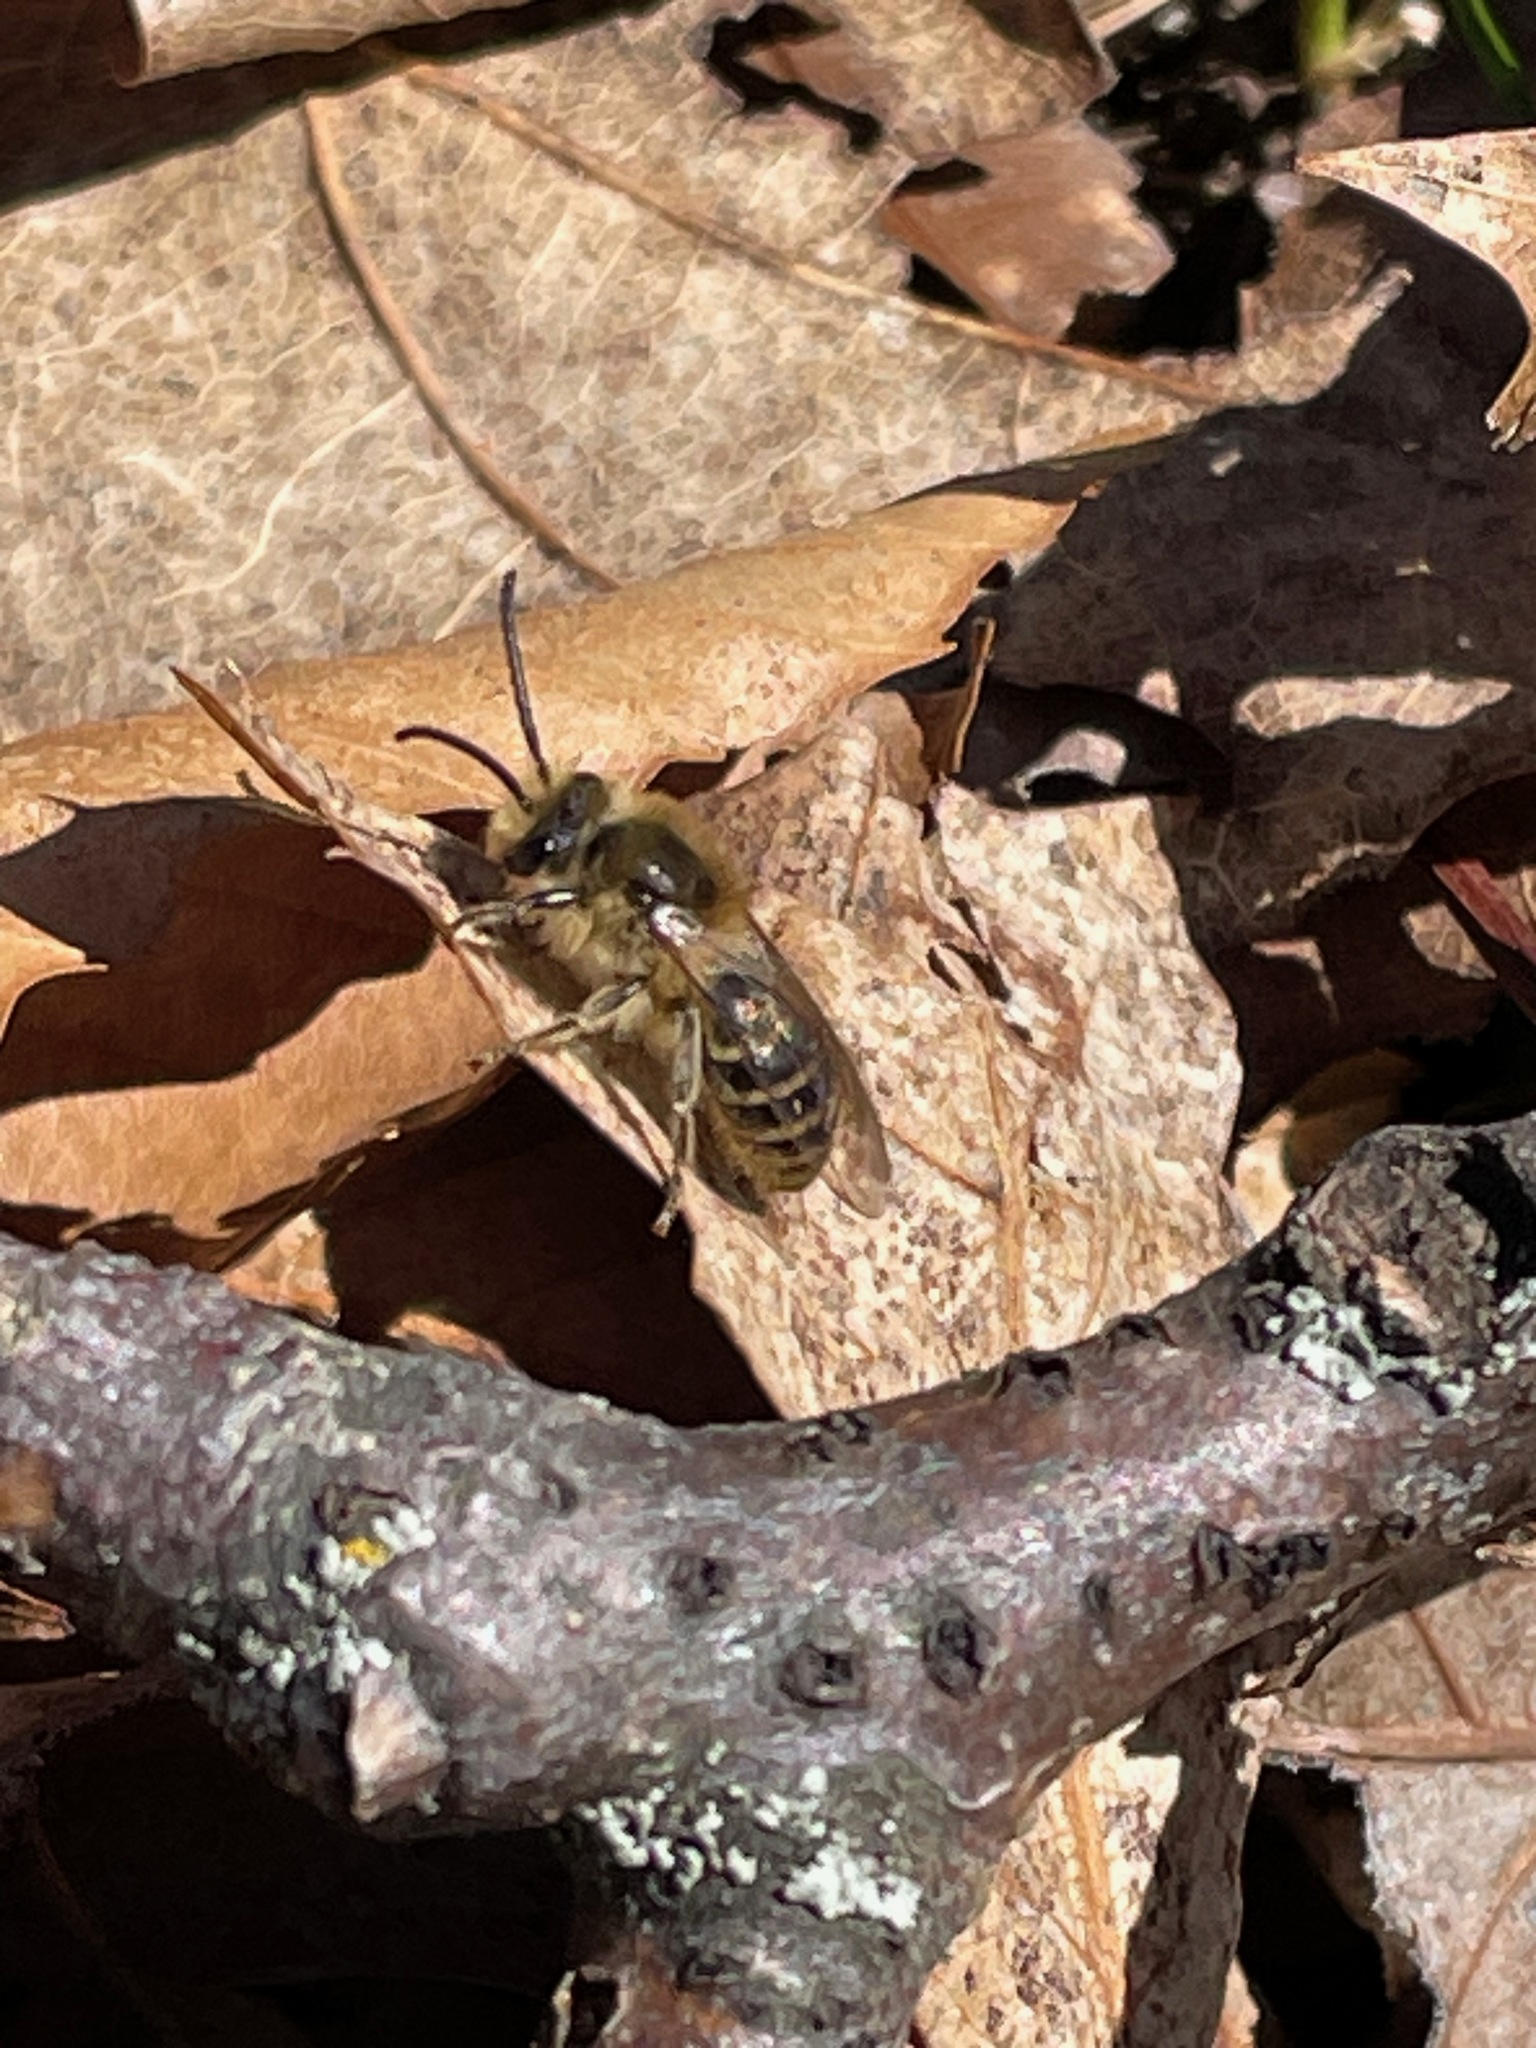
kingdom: Animalia
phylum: Arthropoda
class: Insecta
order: Hymenoptera
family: Colletidae
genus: Colletes
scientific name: Colletes inaequalis
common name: Unequal cellophane bee
